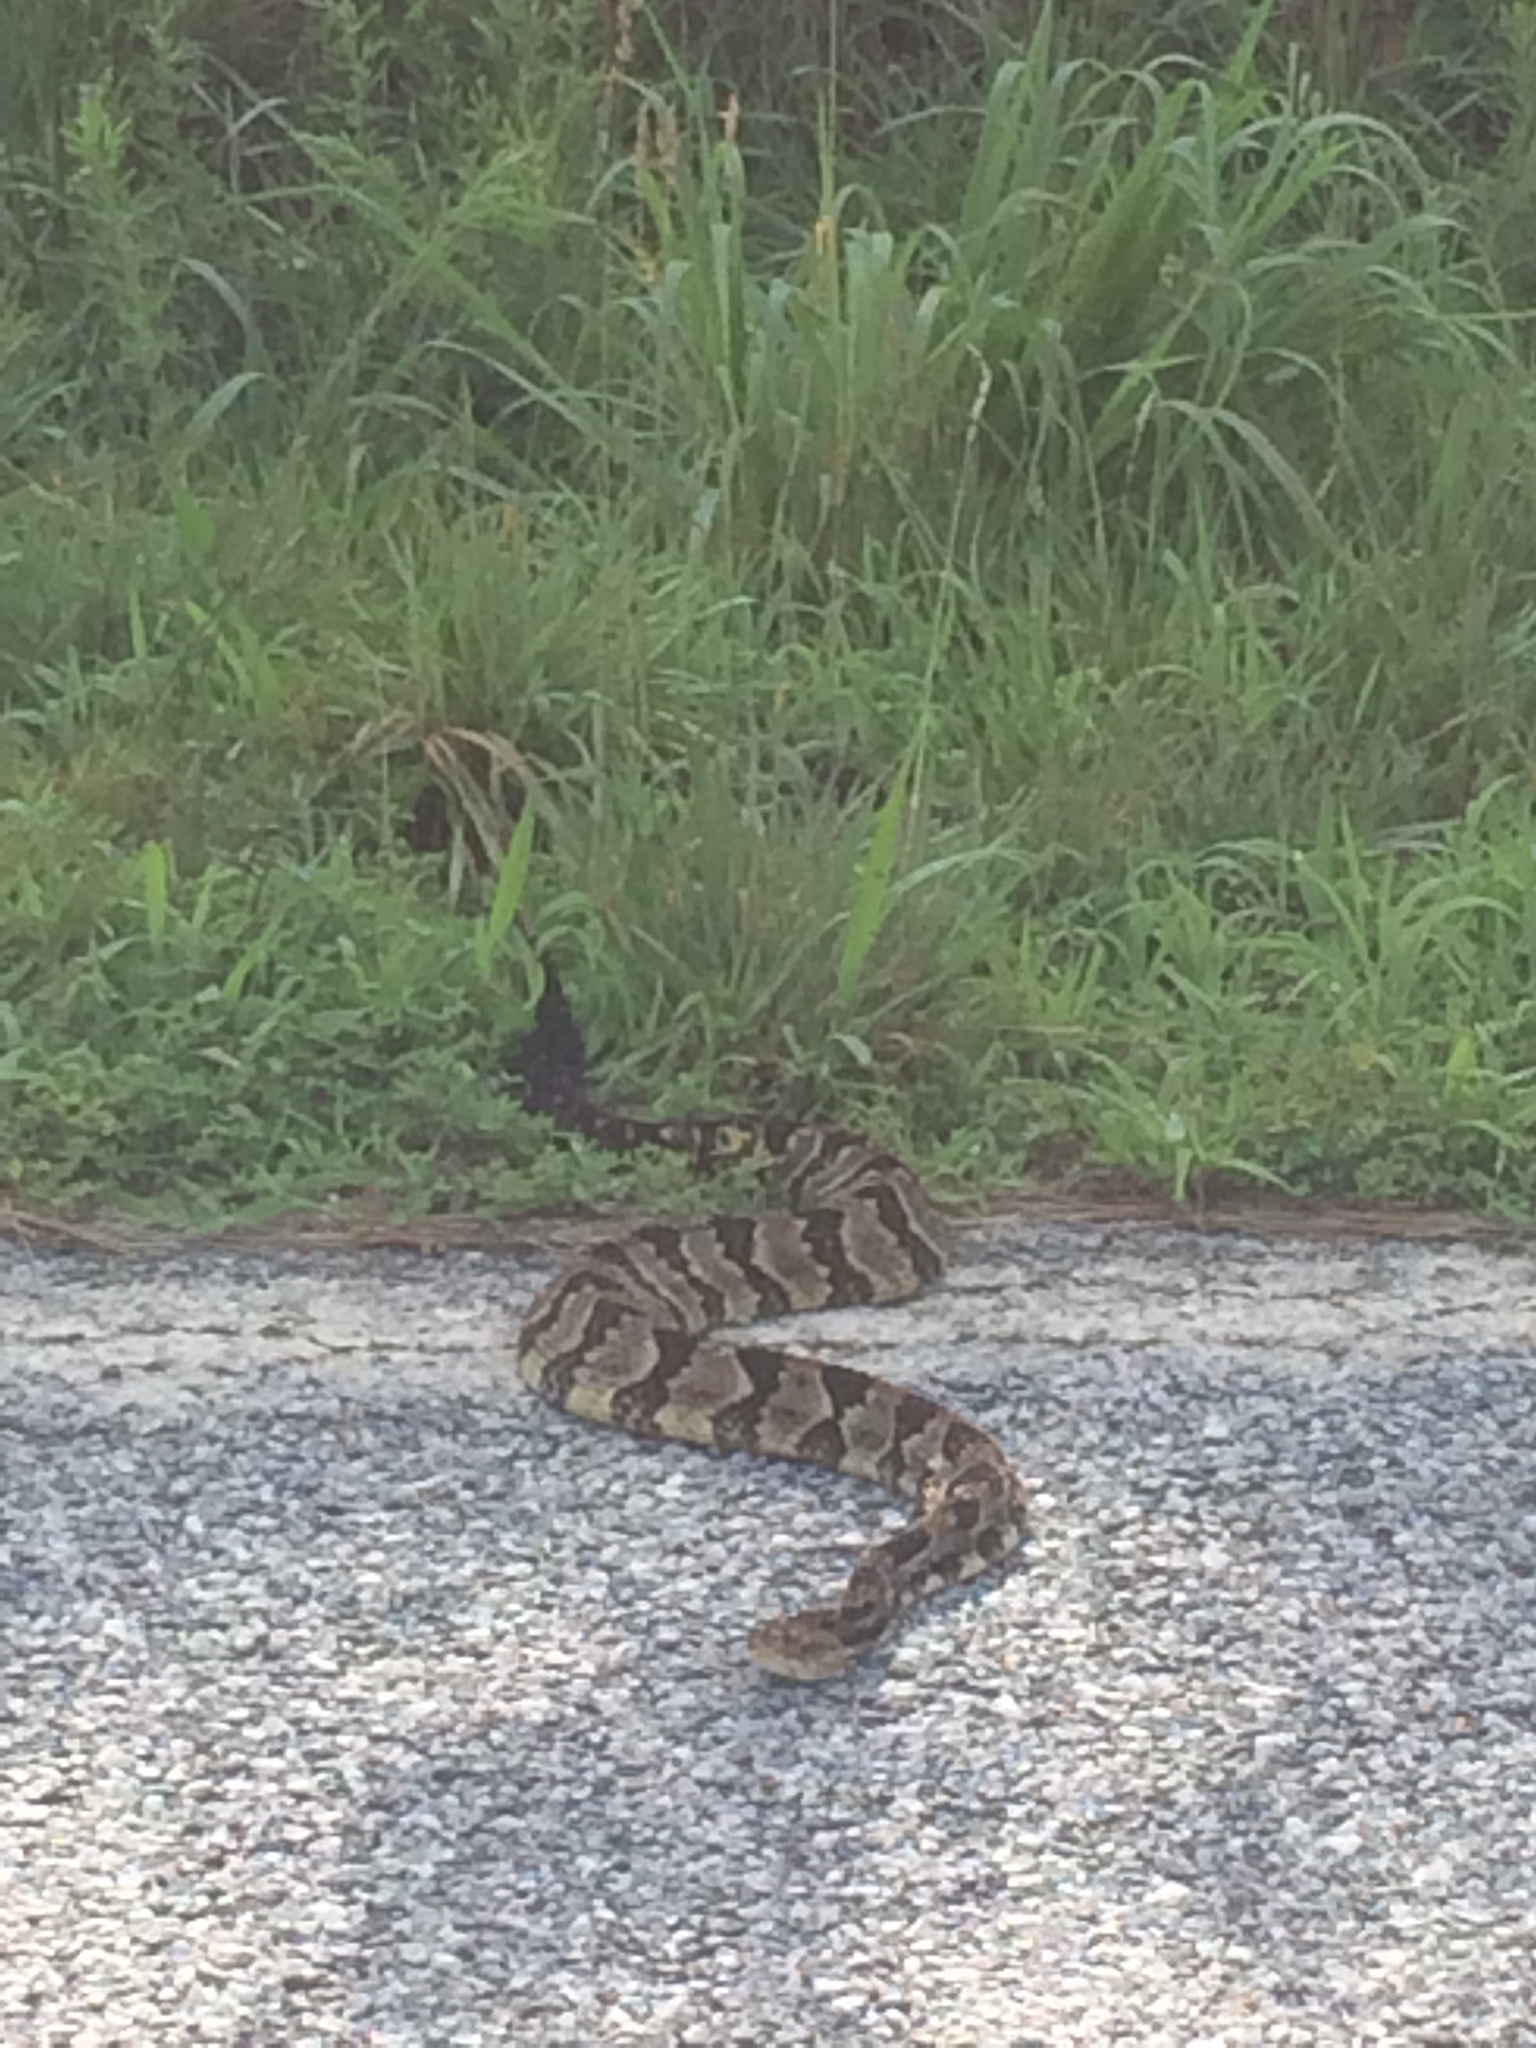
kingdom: Animalia
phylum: Chordata
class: Squamata
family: Viperidae
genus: Crotalus
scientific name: Crotalus horridus
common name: Timber rattlesnake
